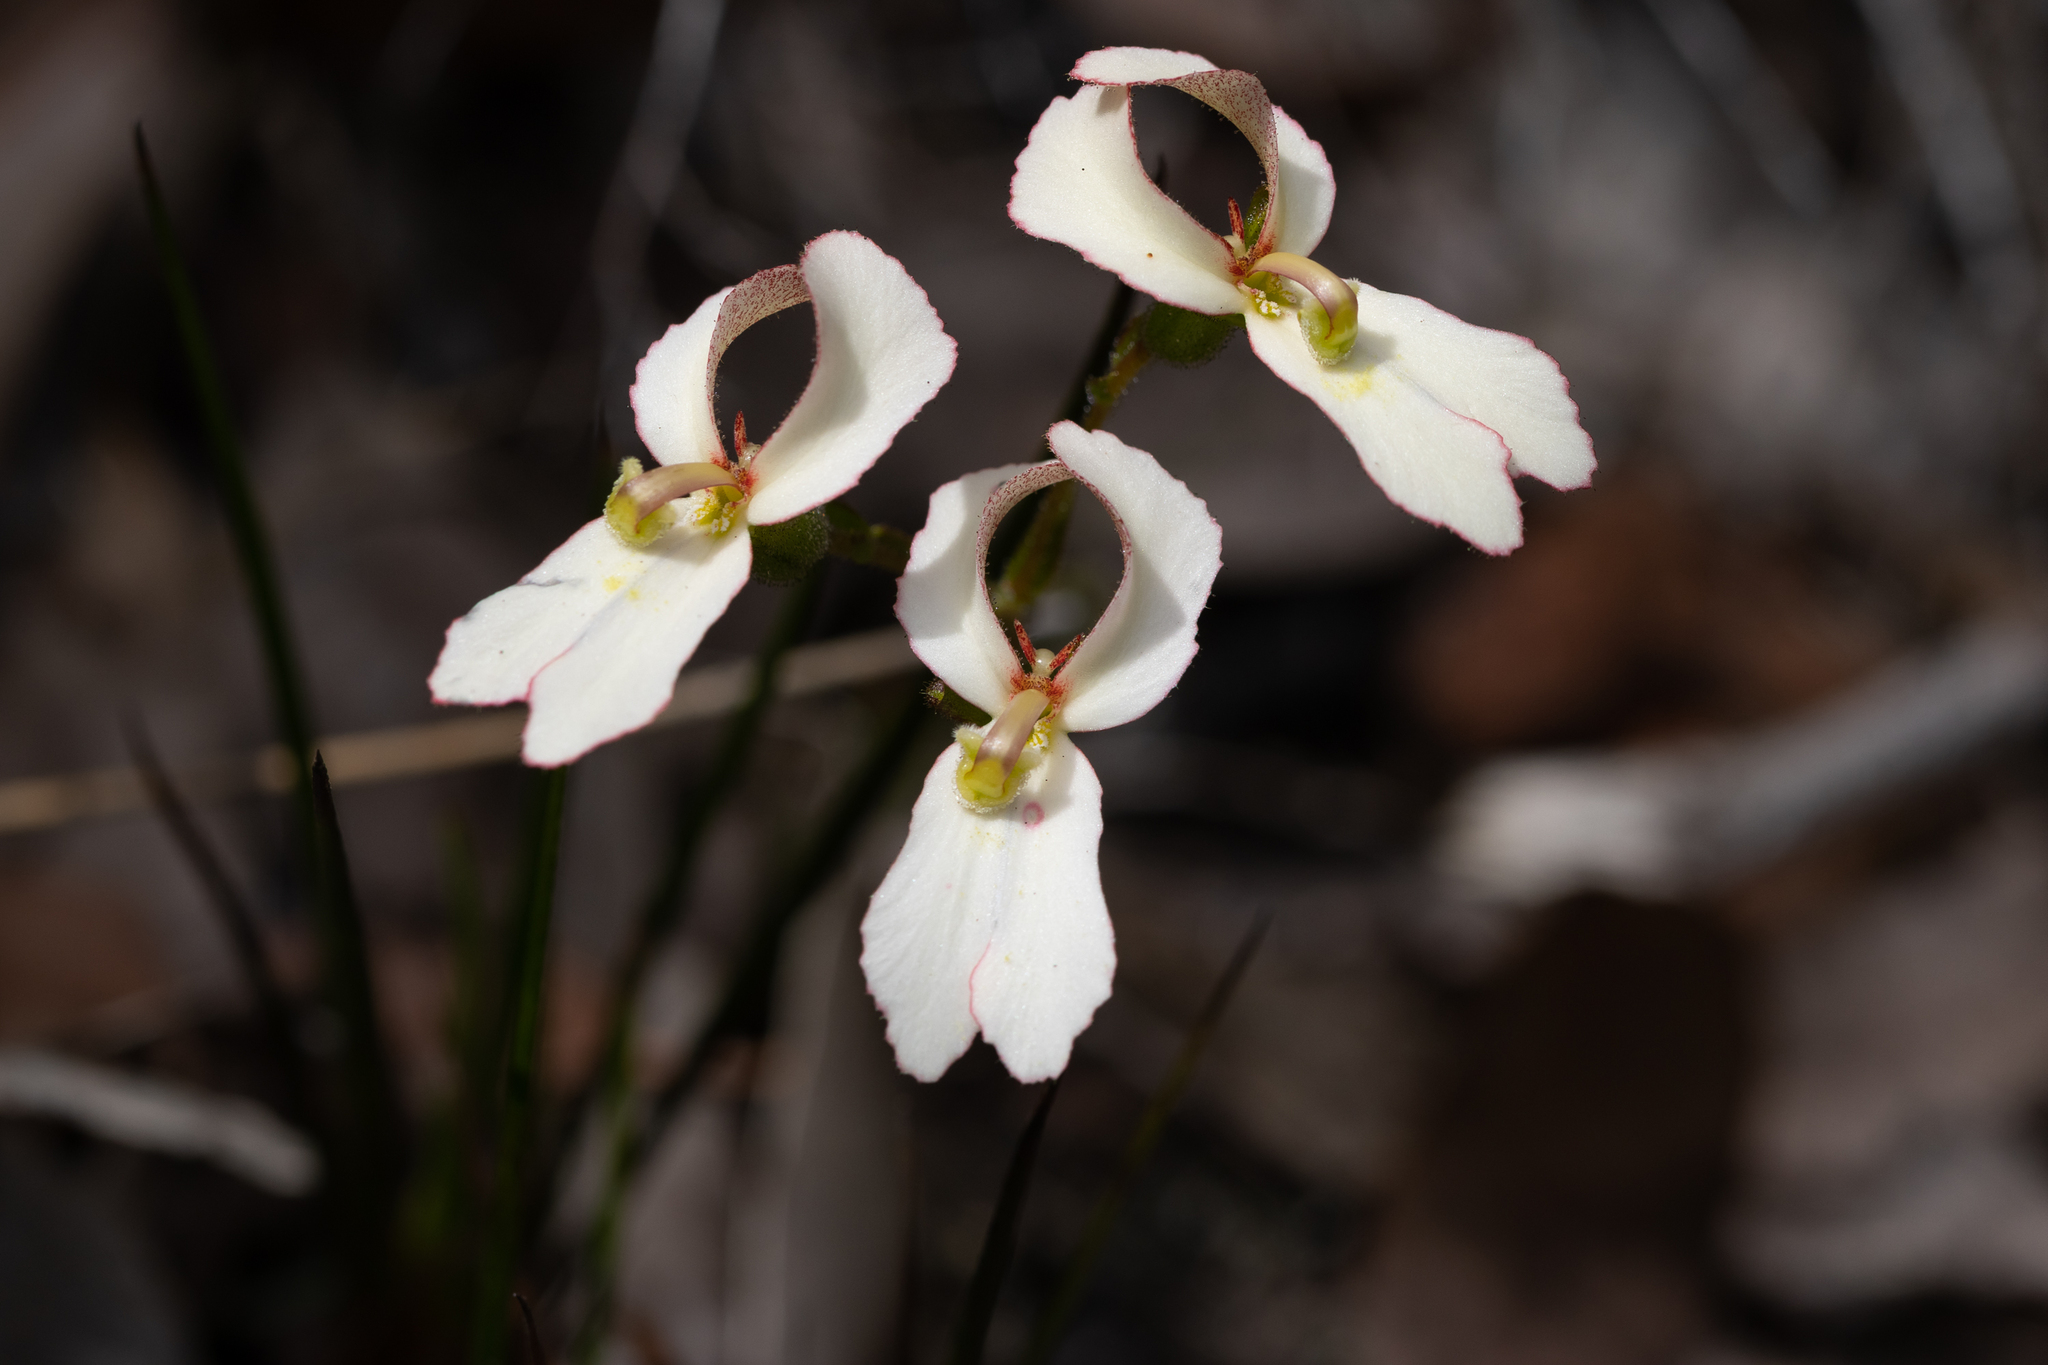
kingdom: Plantae
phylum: Tracheophyta
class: Magnoliopsida
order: Asterales
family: Stylidiaceae
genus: Stylidium
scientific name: Stylidium schoenoides
